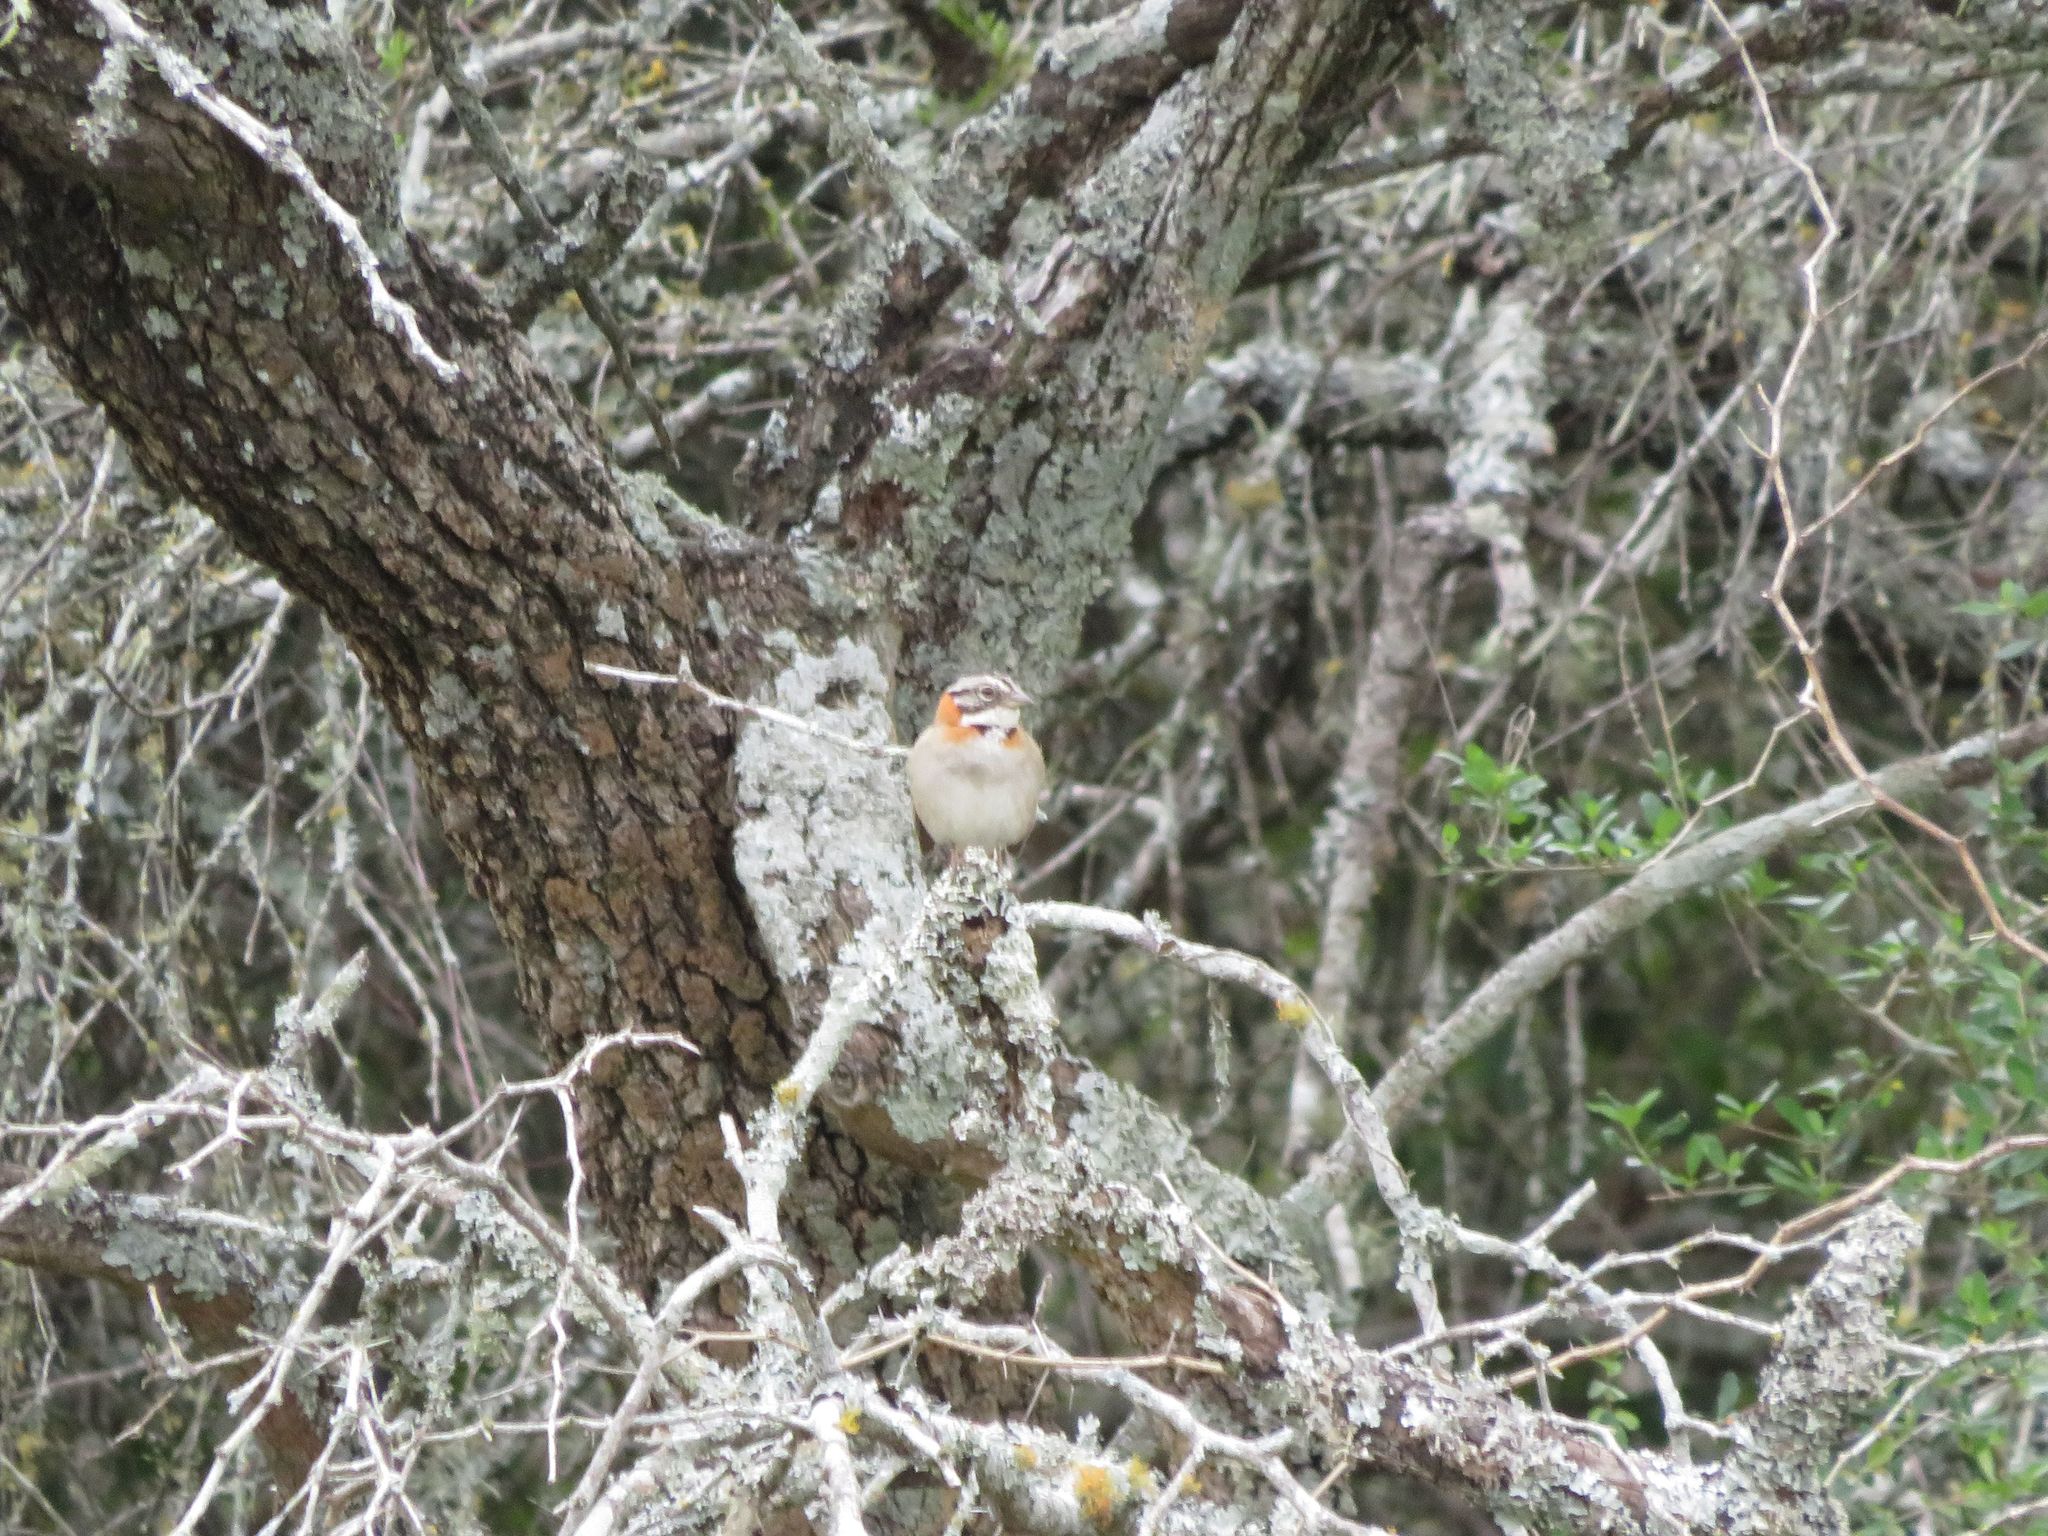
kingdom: Animalia
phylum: Chordata
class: Aves
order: Passeriformes
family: Passerellidae
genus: Zonotrichia
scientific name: Zonotrichia capensis
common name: Rufous-collared sparrow
